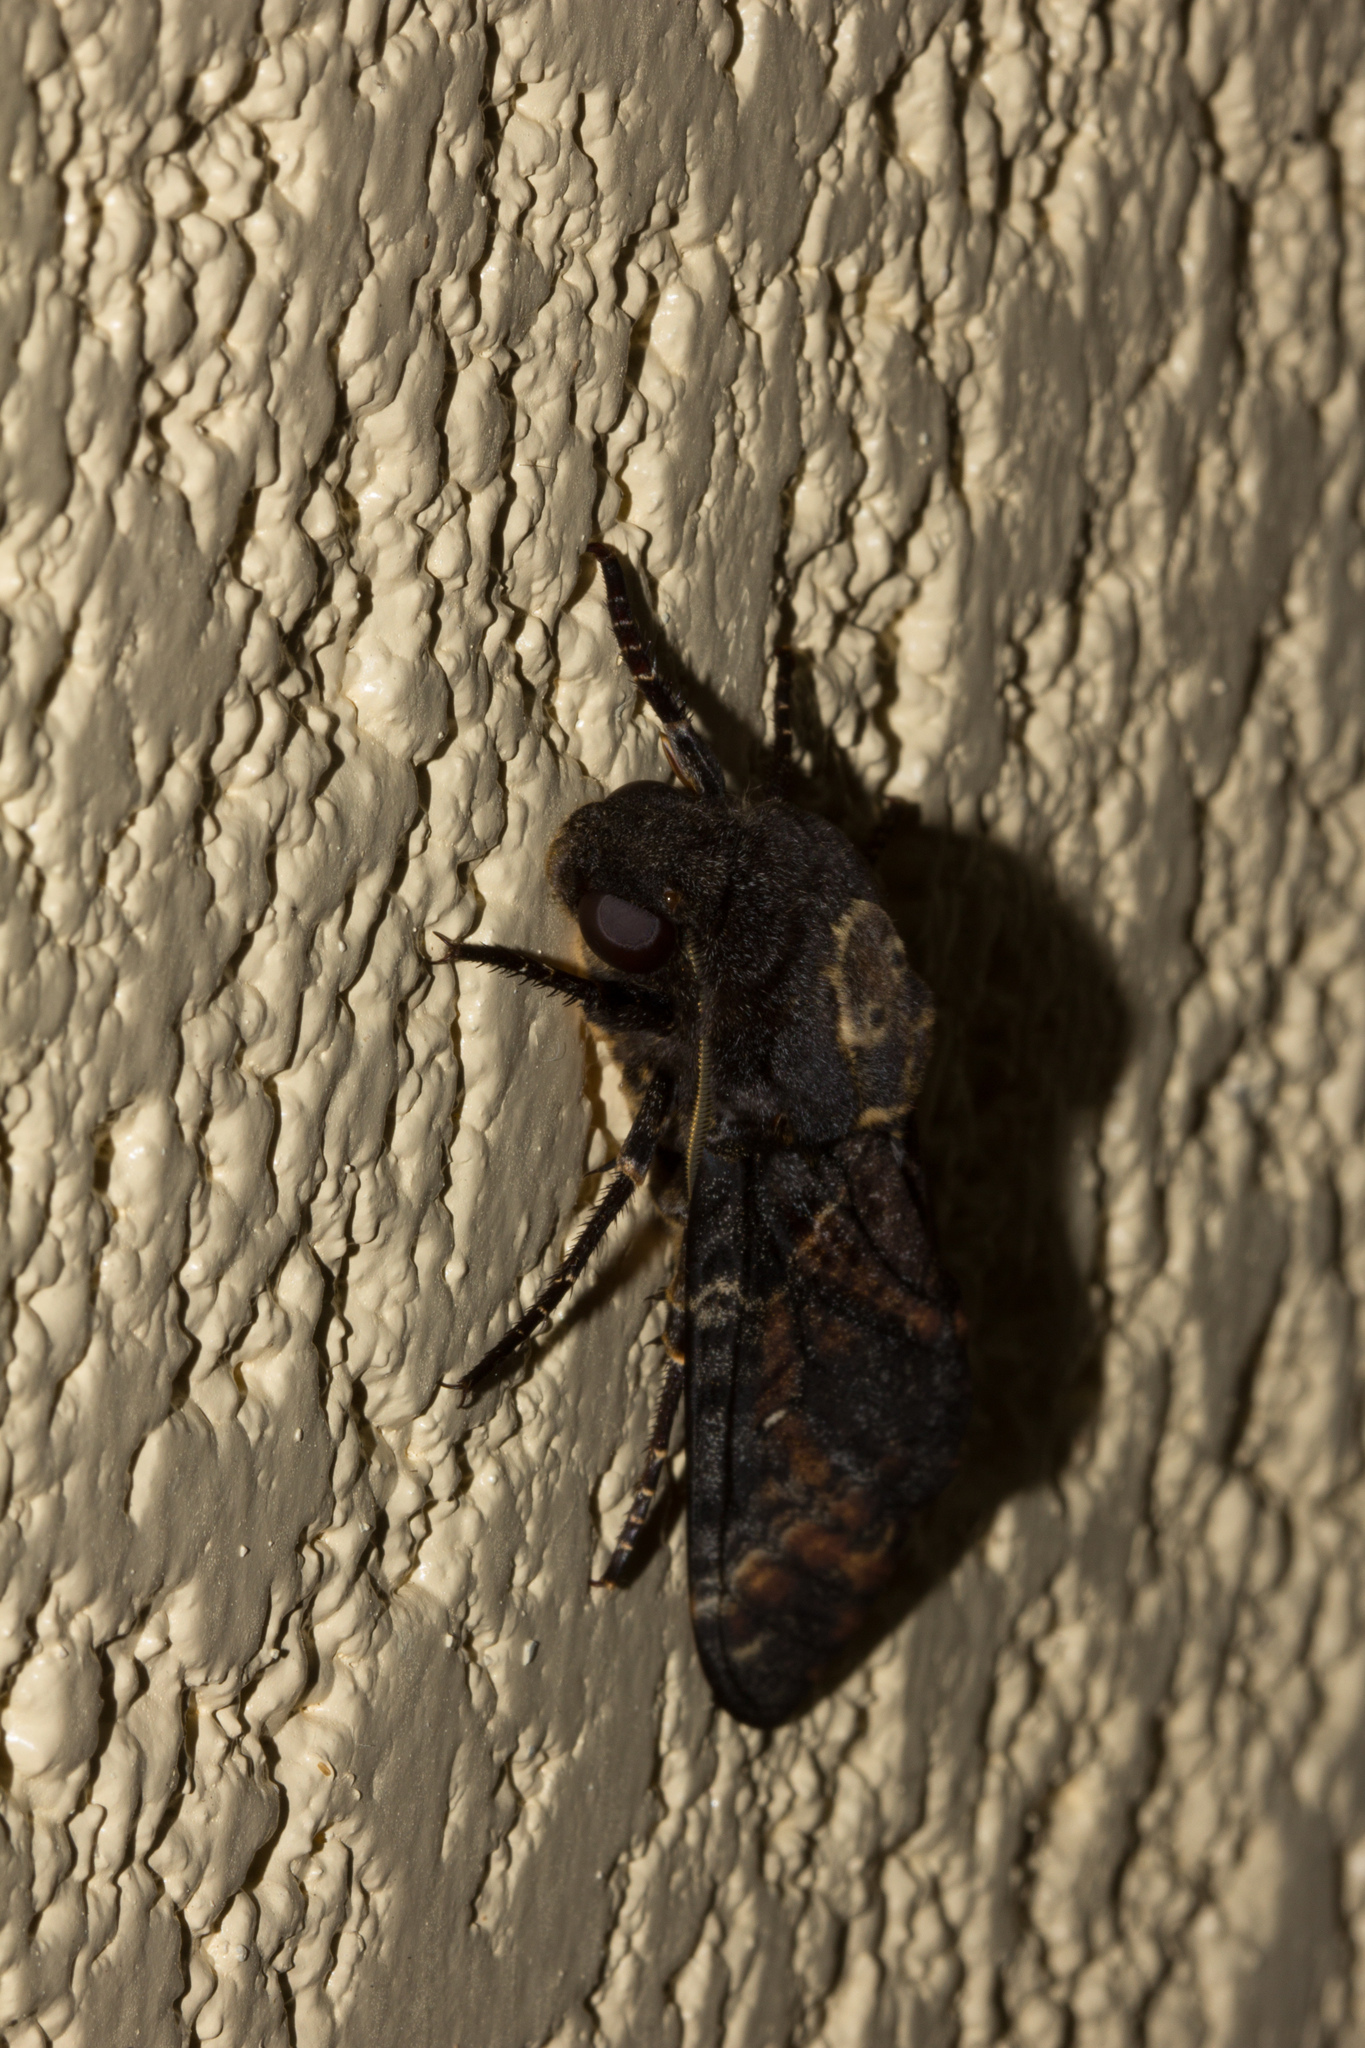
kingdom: Animalia
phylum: Arthropoda
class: Insecta
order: Lepidoptera
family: Sphingidae
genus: Acherontia
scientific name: Acherontia atropos
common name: Death's-head hawk moth
